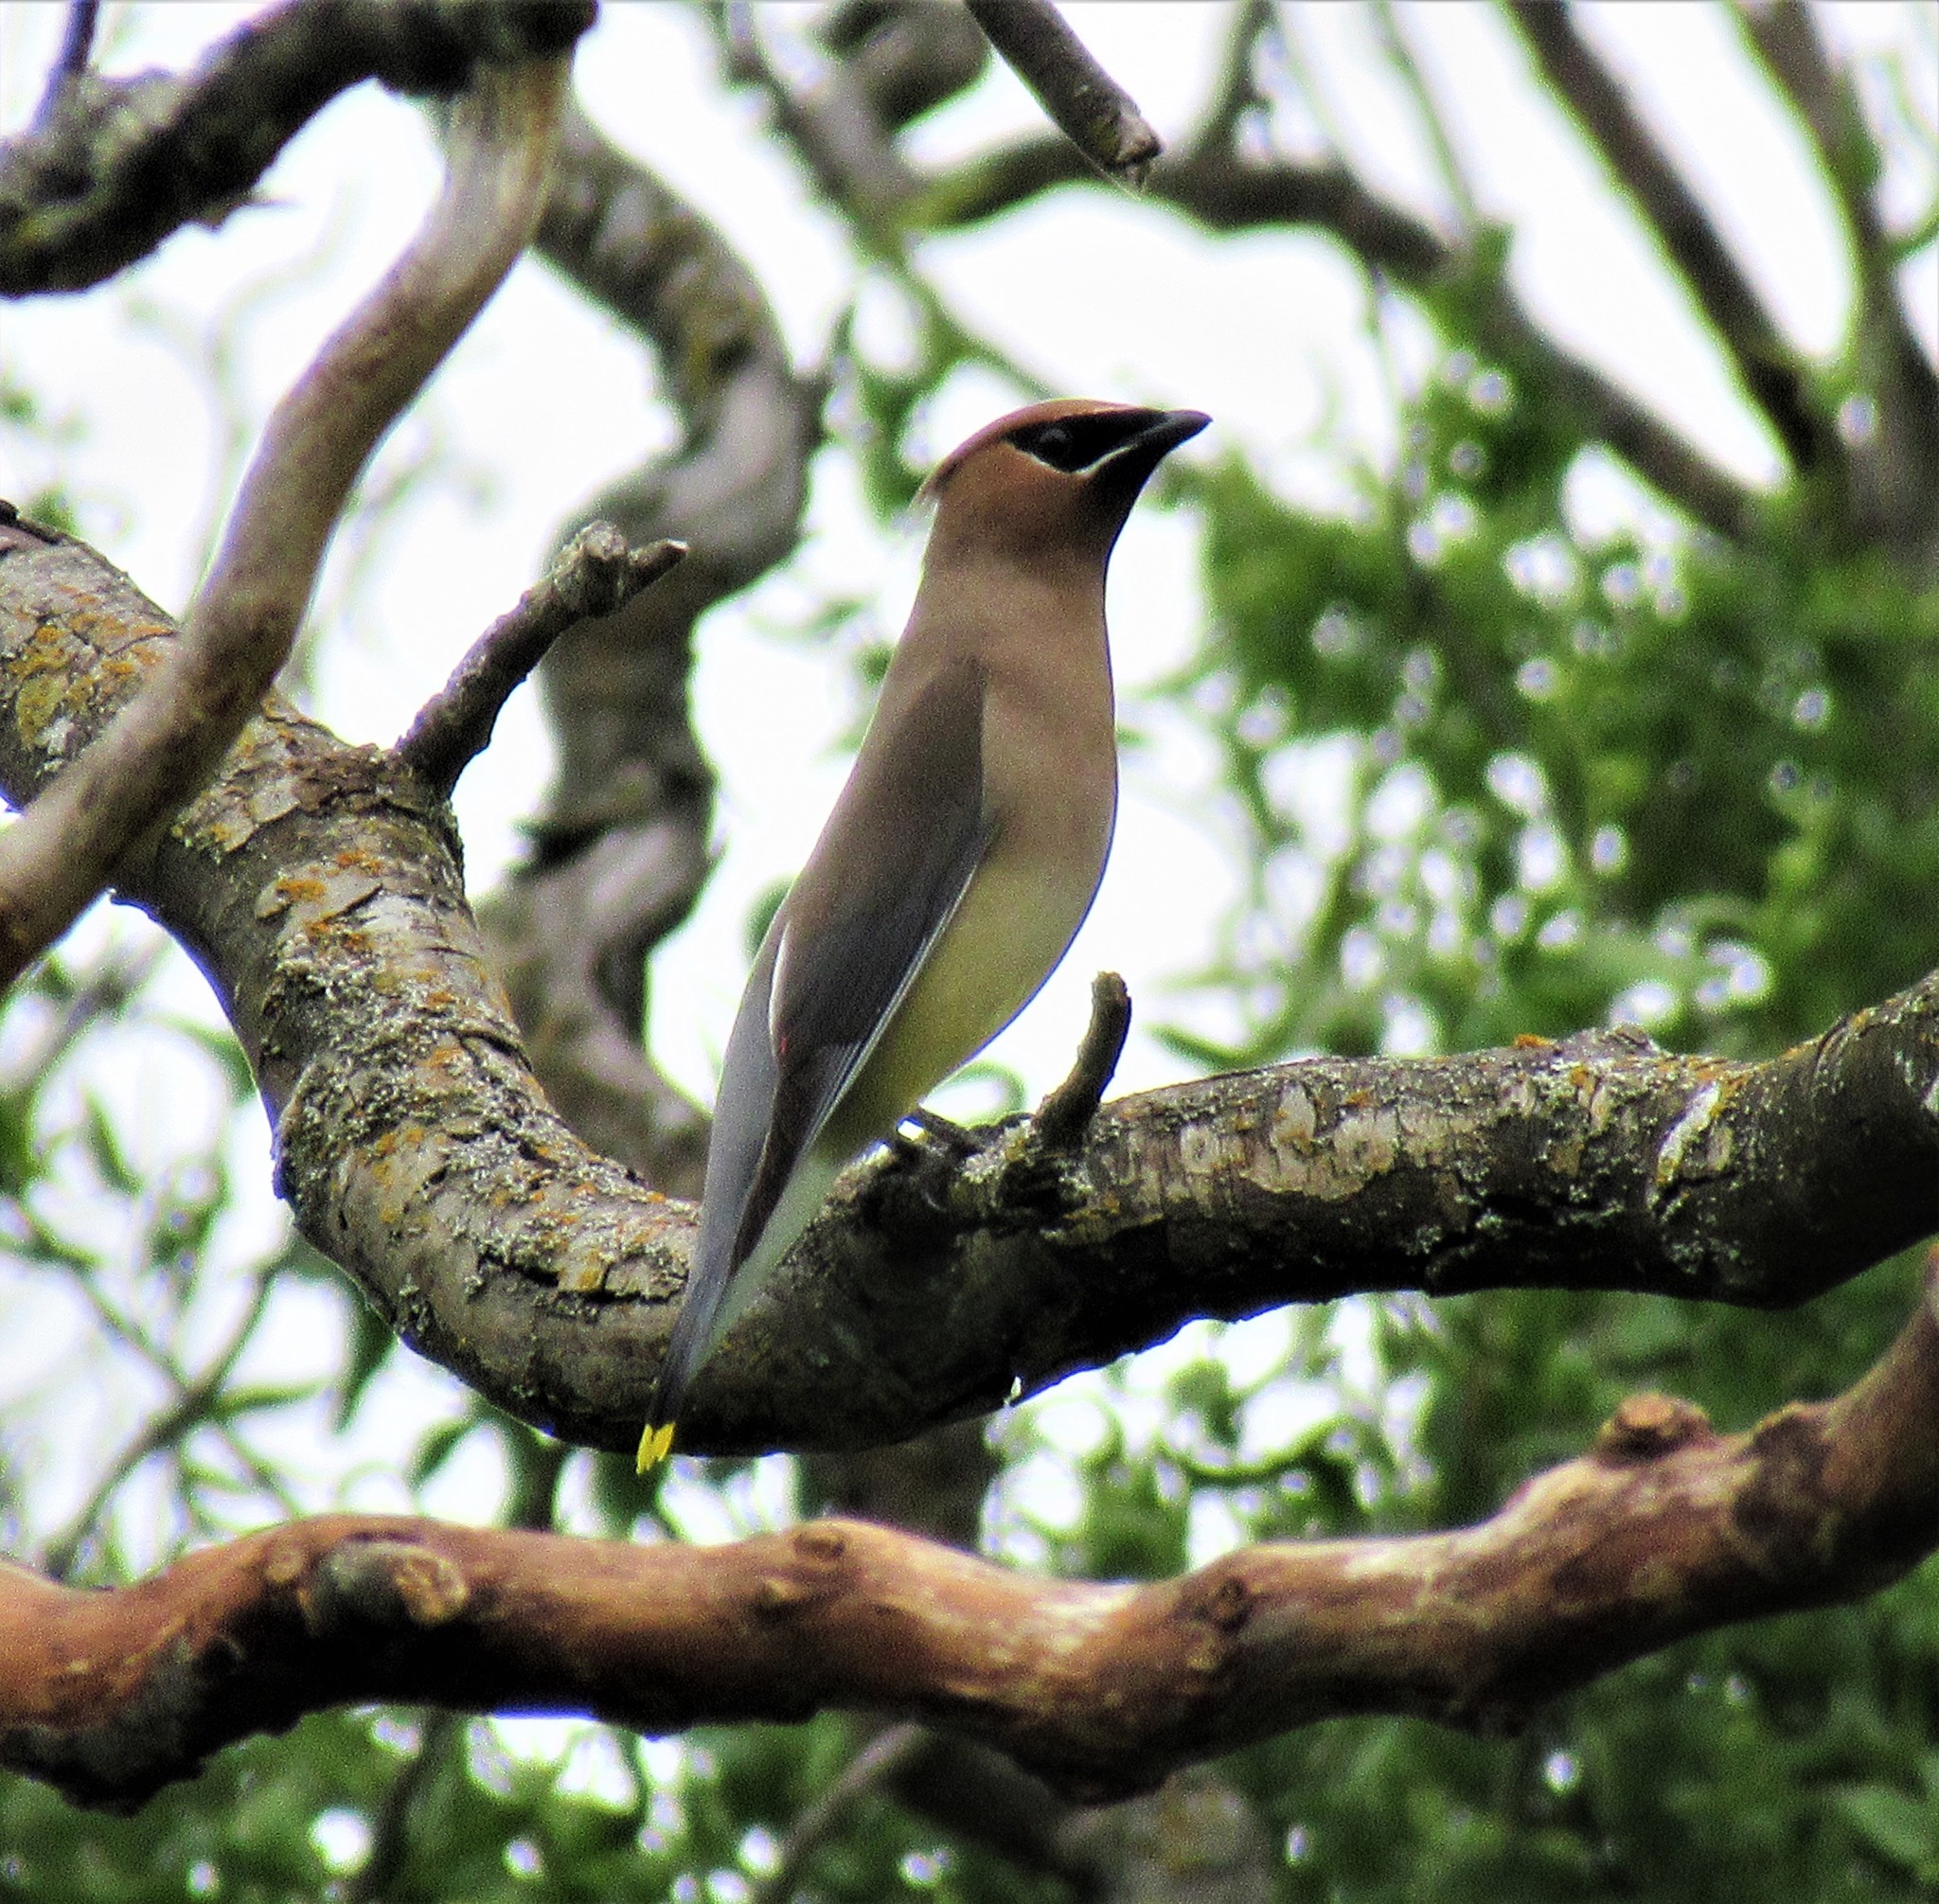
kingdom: Animalia
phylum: Chordata
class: Aves
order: Passeriformes
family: Bombycillidae
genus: Bombycilla
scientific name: Bombycilla cedrorum
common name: Cedar waxwing
